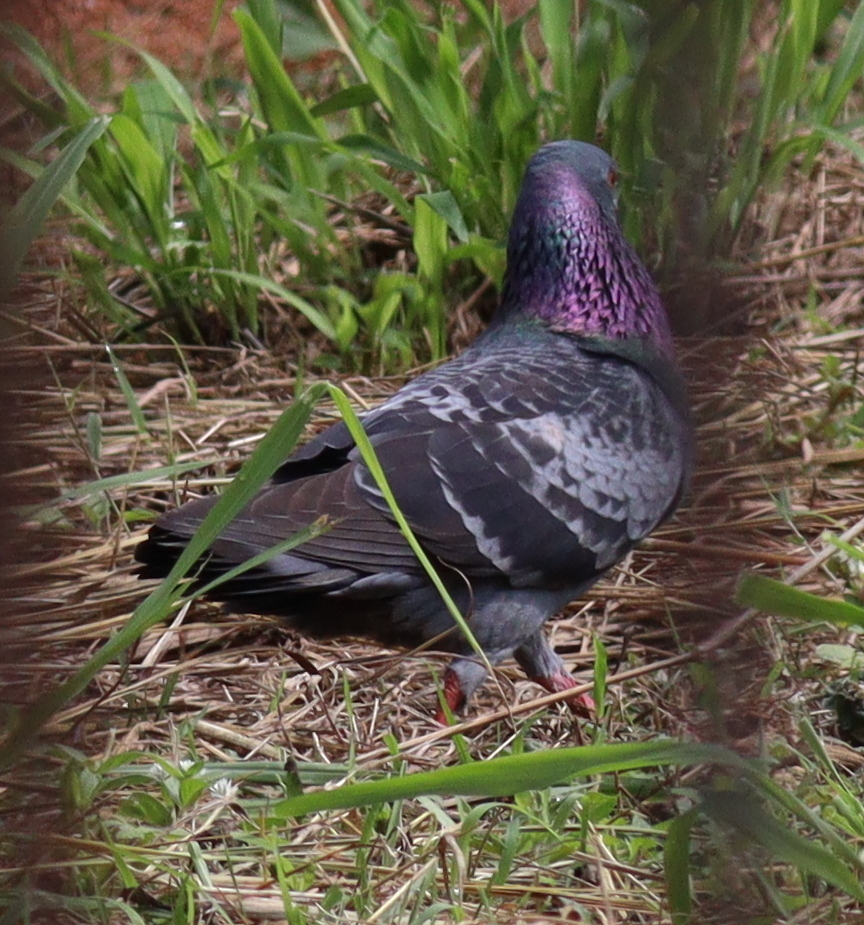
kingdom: Animalia
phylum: Chordata
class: Aves
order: Columbiformes
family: Columbidae
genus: Columba
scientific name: Columba livia
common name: Rock pigeon
